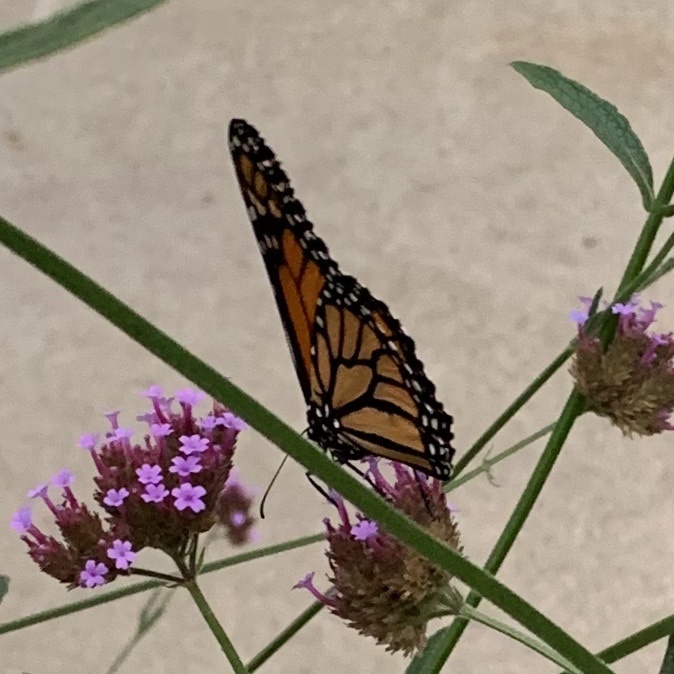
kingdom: Animalia
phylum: Arthropoda
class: Insecta
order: Lepidoptera
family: Nymphalidae
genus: Danaus
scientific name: Danaus plexippus
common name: Monarch
